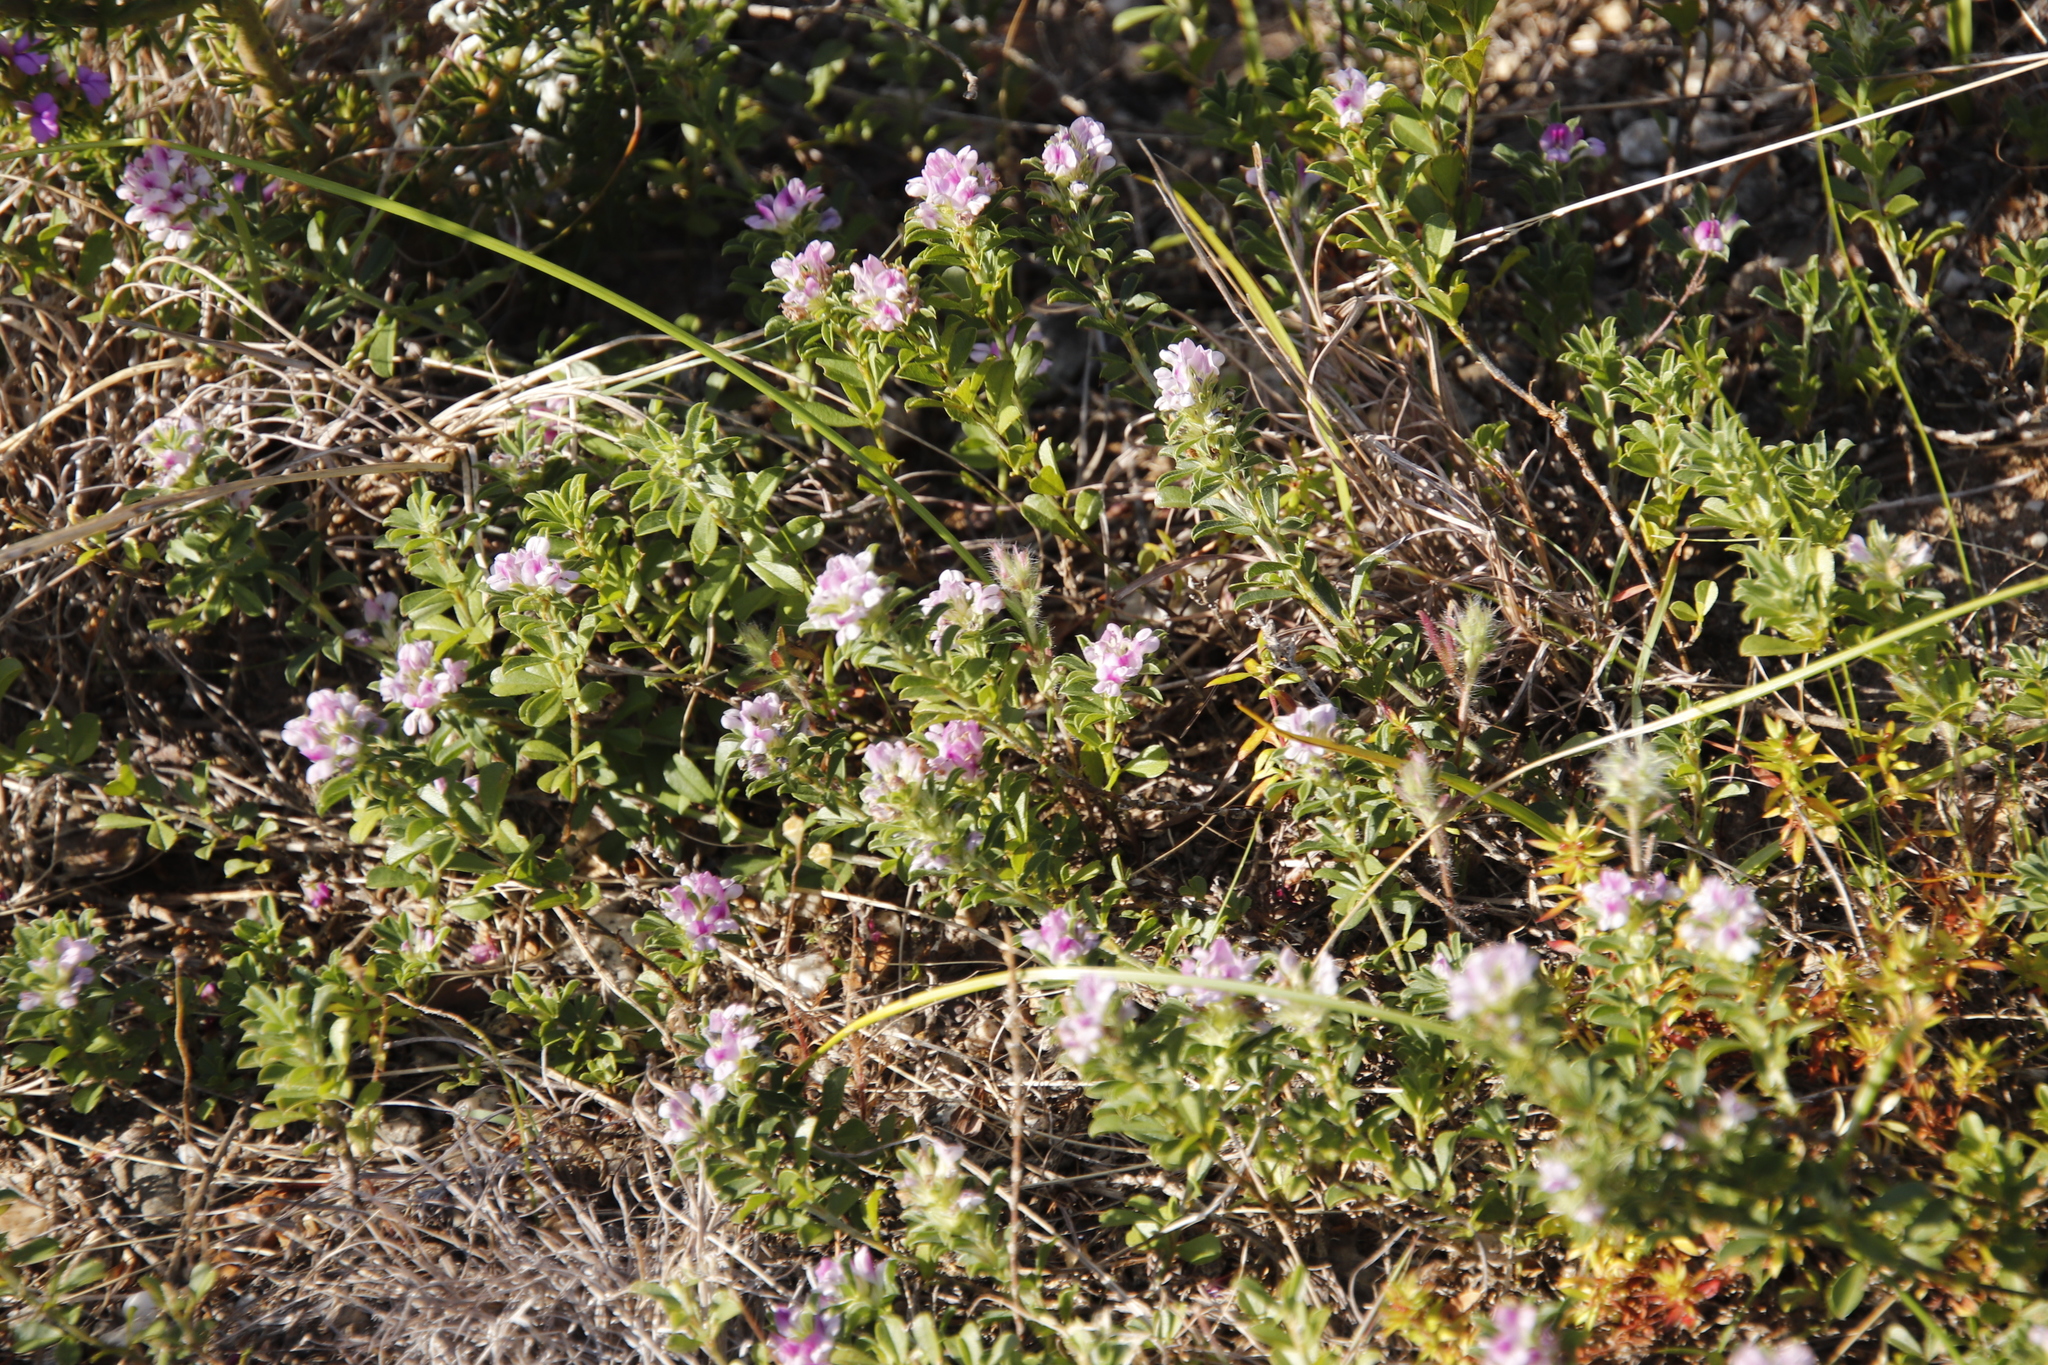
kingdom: Plantae
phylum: Tracheophyta
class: Magnoliopsida
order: Fabales
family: Fabaceae
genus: Psoralea
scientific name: Psoralea
